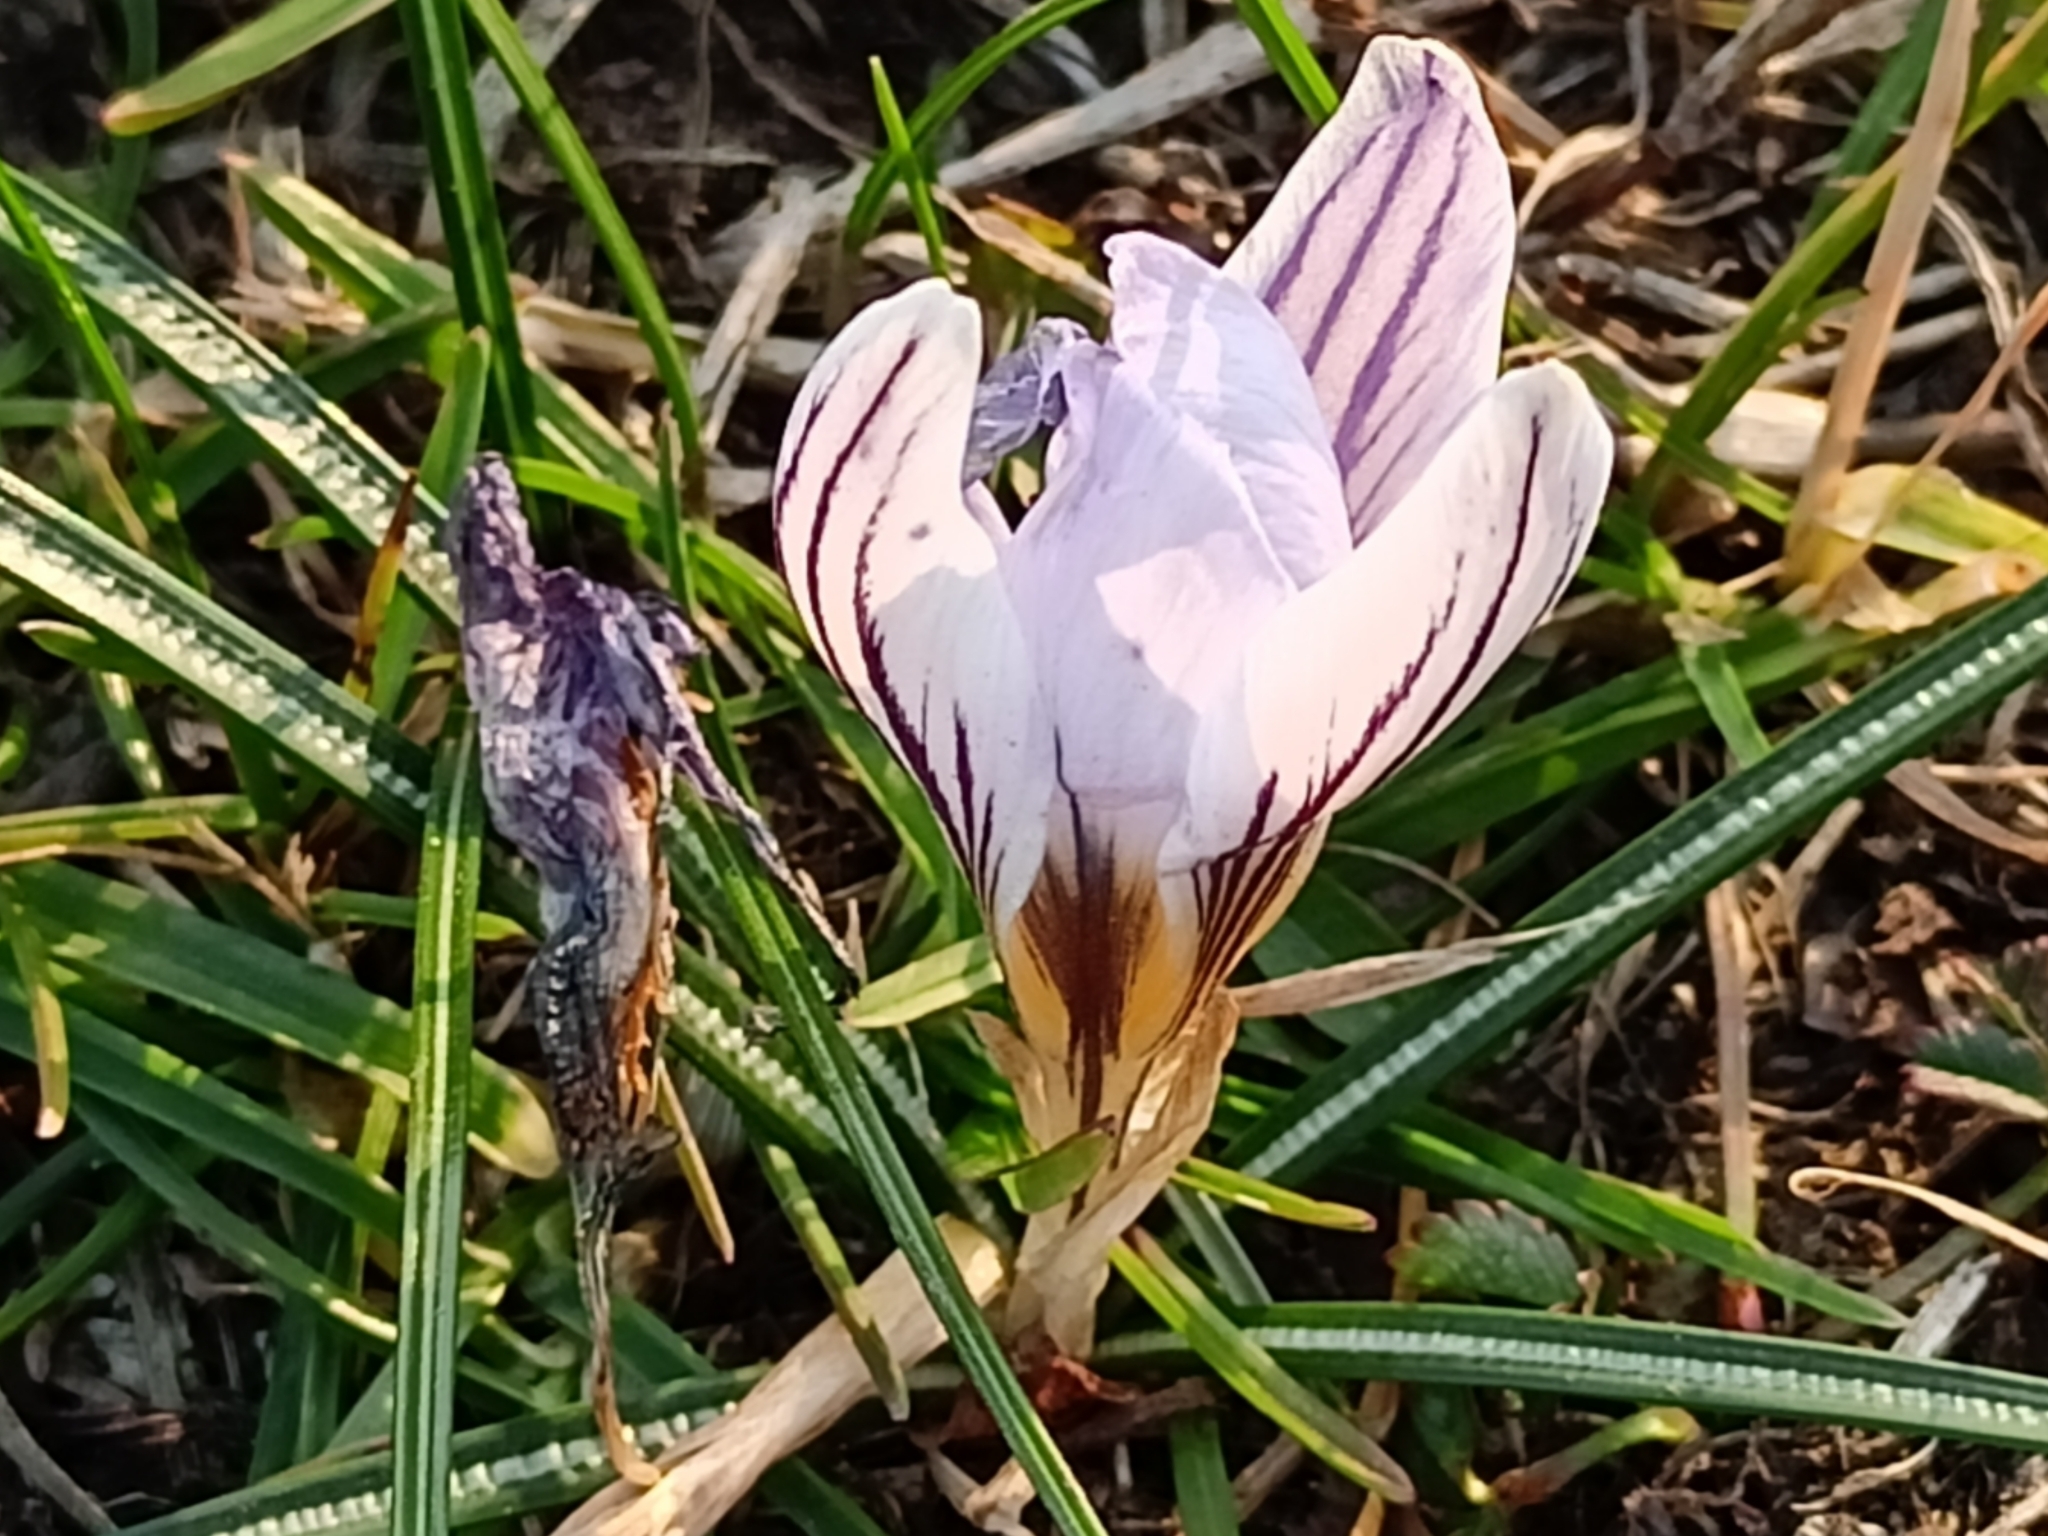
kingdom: Plantae
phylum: Tracheophyta
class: Liliopsida
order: Asparagales
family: Iridaceae
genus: Crocus
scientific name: Crocus biflorus
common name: Silvery crocus
